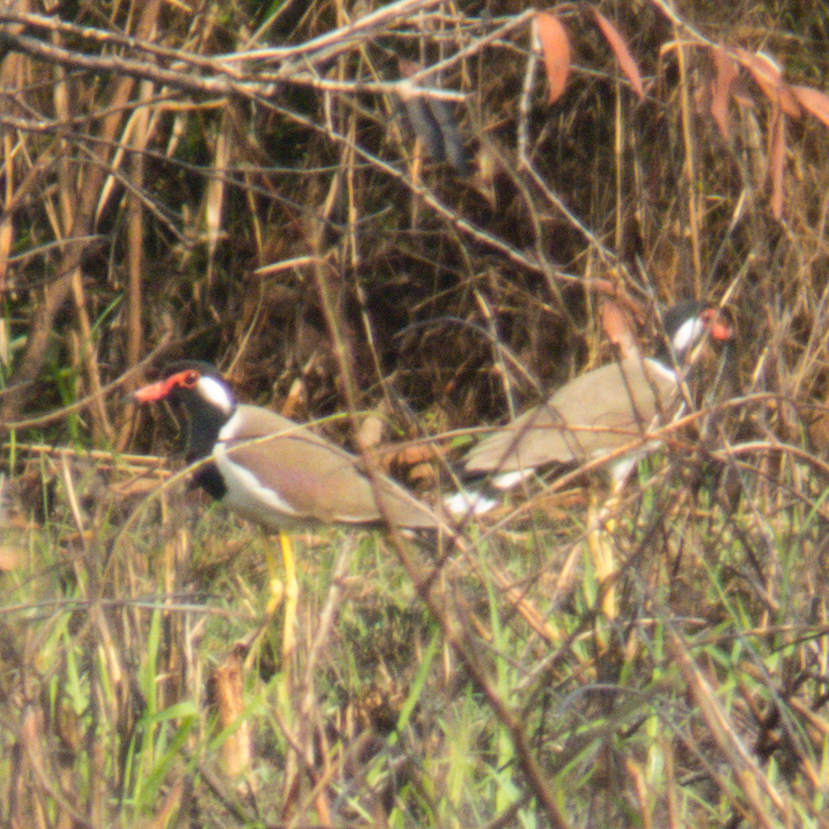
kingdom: Animalia
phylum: Chordata
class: Aves
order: Charadriiformes
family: Charadriidae
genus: Vanellus
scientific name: Vanellus indicus
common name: Red-wattled lapwing
